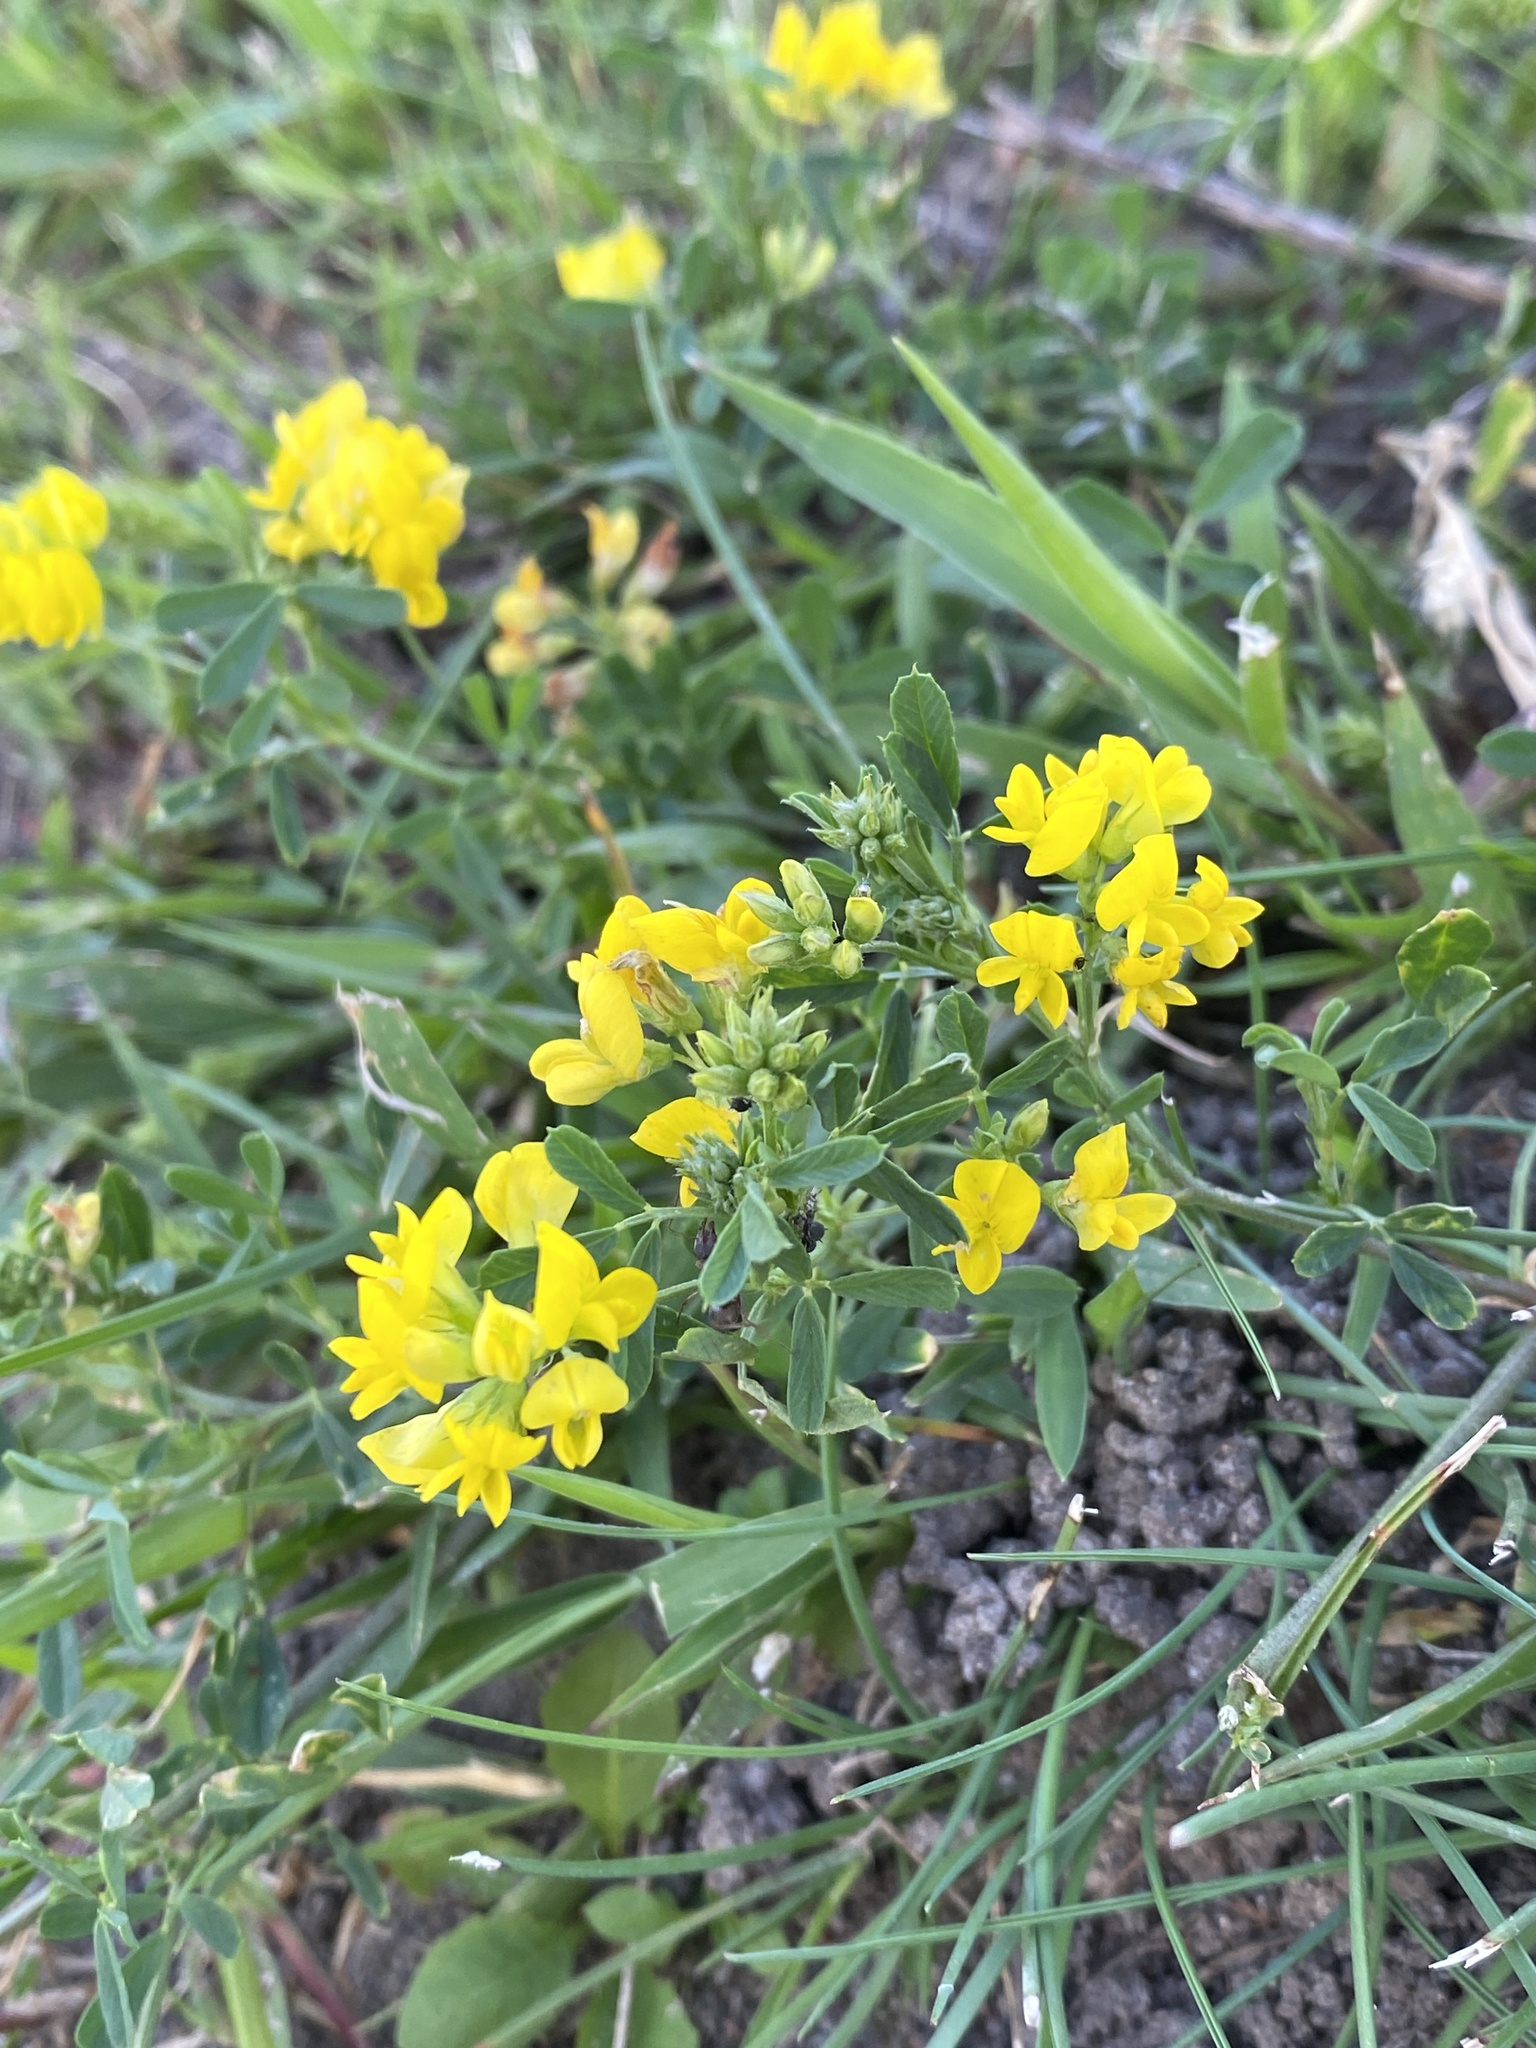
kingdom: Plantae
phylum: Tracheophyta
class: Magnoliopsida
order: Fabales
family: Fabaceae
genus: Medicago
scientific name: Medicago falcata
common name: Sickle medick
